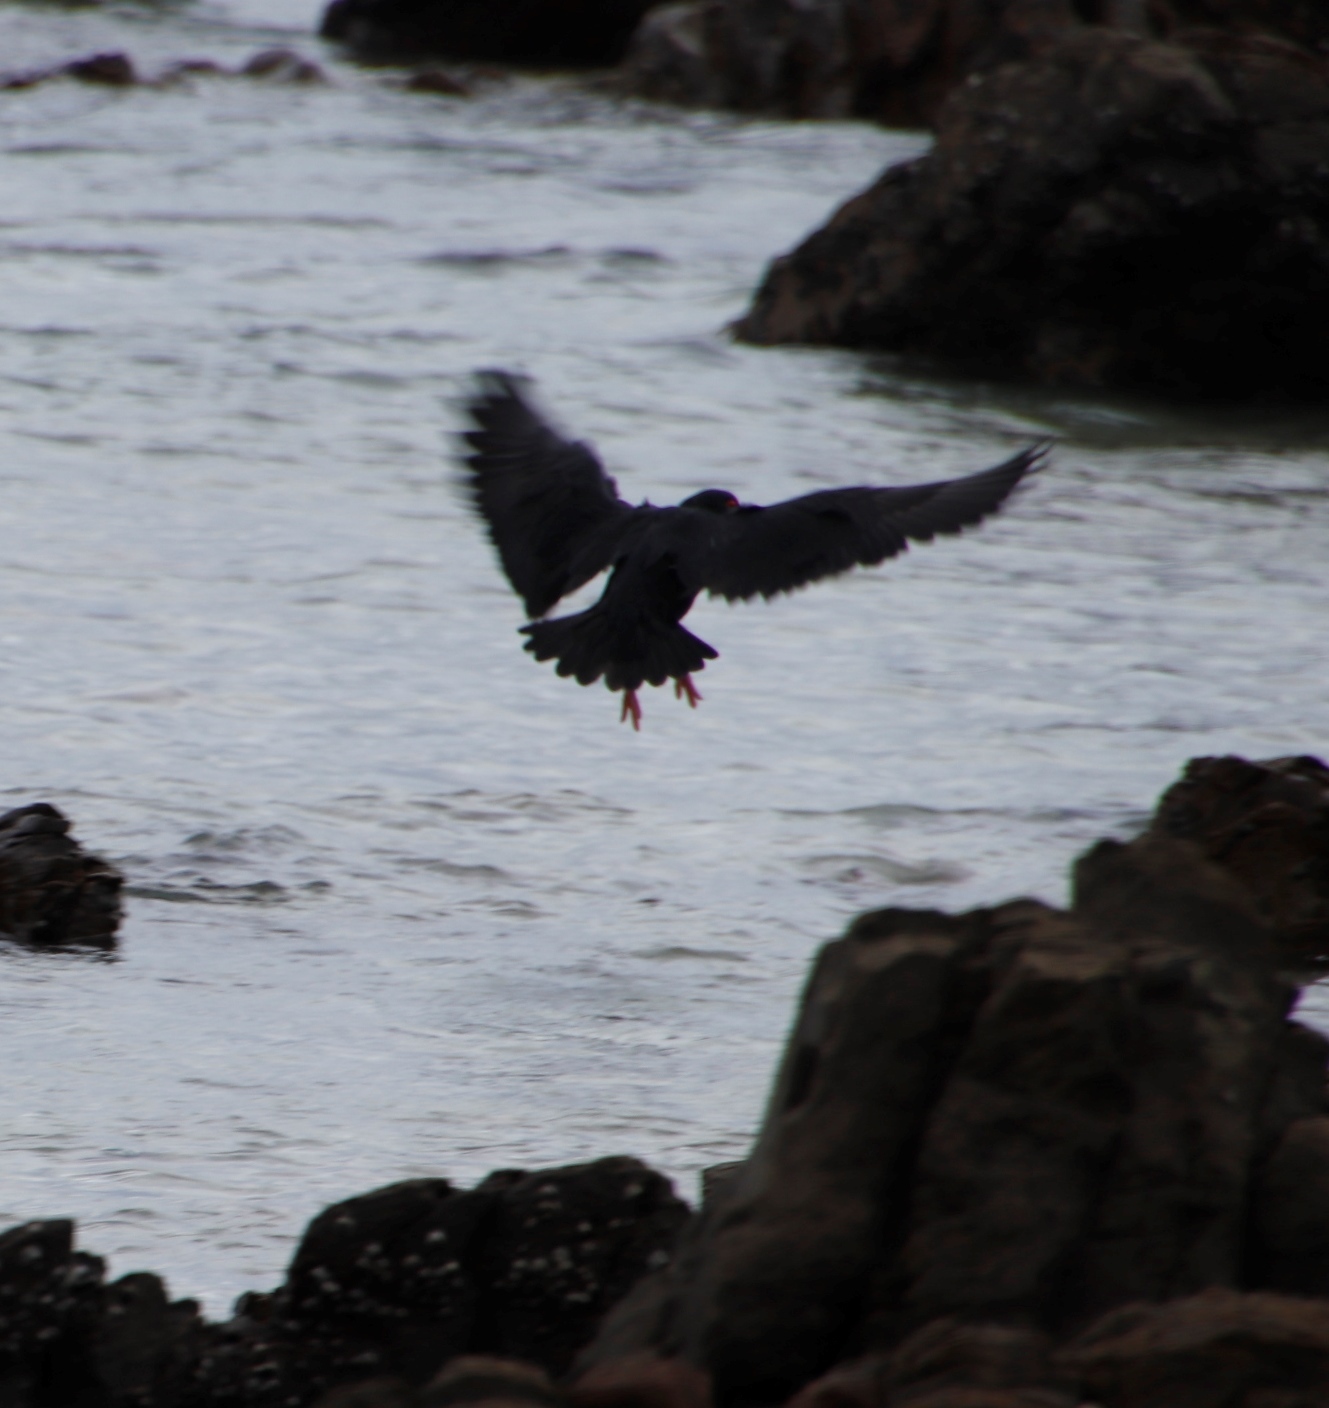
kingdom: Animalia
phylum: Chordata
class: Aves
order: Charadriiformes
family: Haematopodidae
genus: Haematopus
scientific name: Haematopus moquini
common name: African oystercatcher
